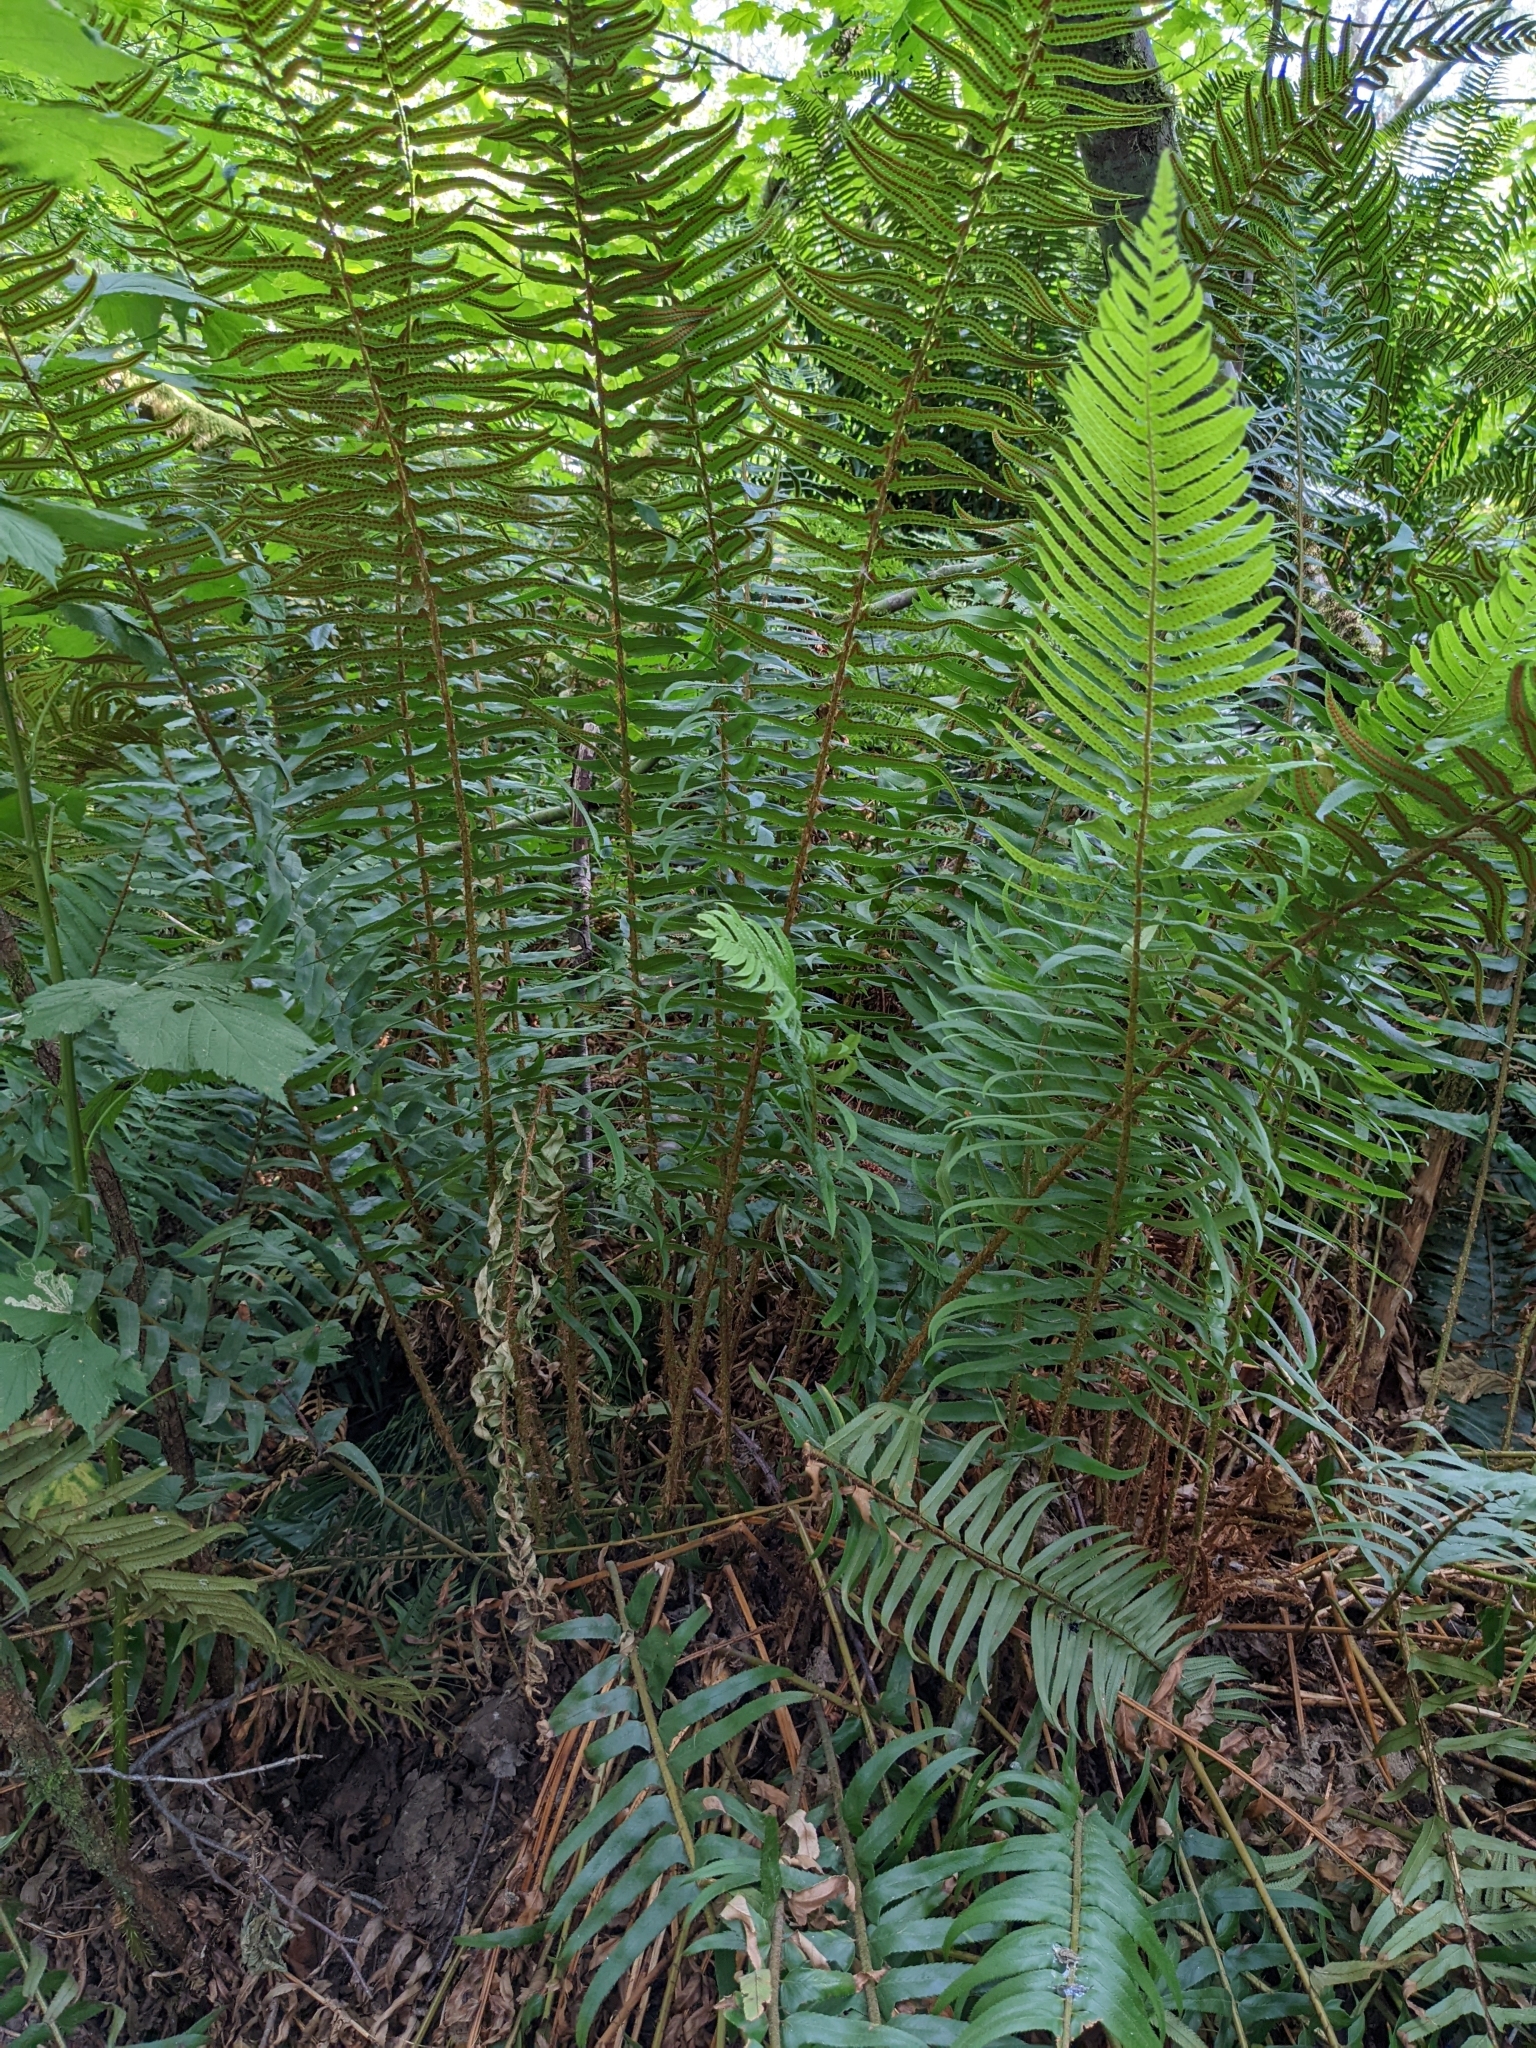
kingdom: Plantae
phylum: Tracheophyta
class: Polypodiopsida
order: Polypodiales
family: Dryopteridaceae
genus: Polystichum
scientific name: Polystichum munitum
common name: Western sword-fern
